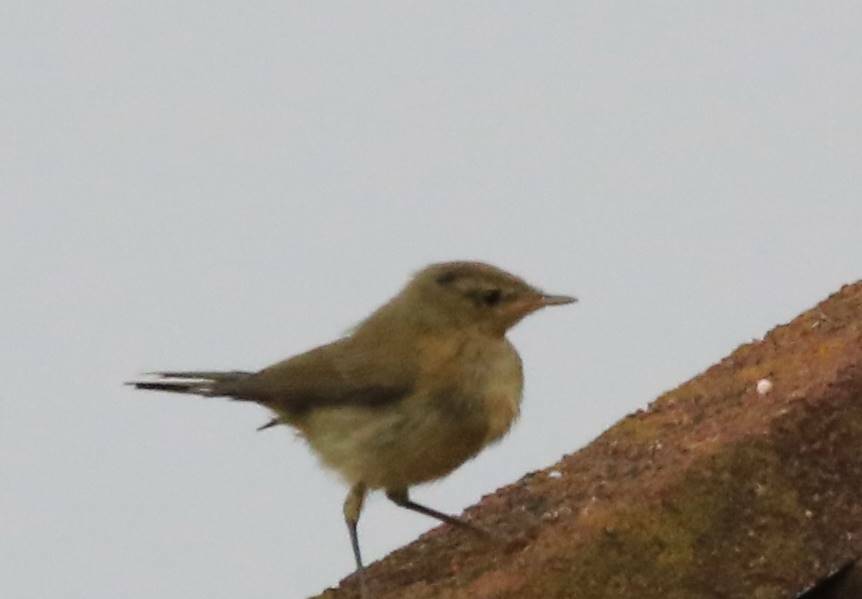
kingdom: Animalia
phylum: Chordata
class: Aves
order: Passeriformes
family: Phylloscopidae
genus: Phylloscopus
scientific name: Phylloscopus collybita
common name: Common chiffchaff
